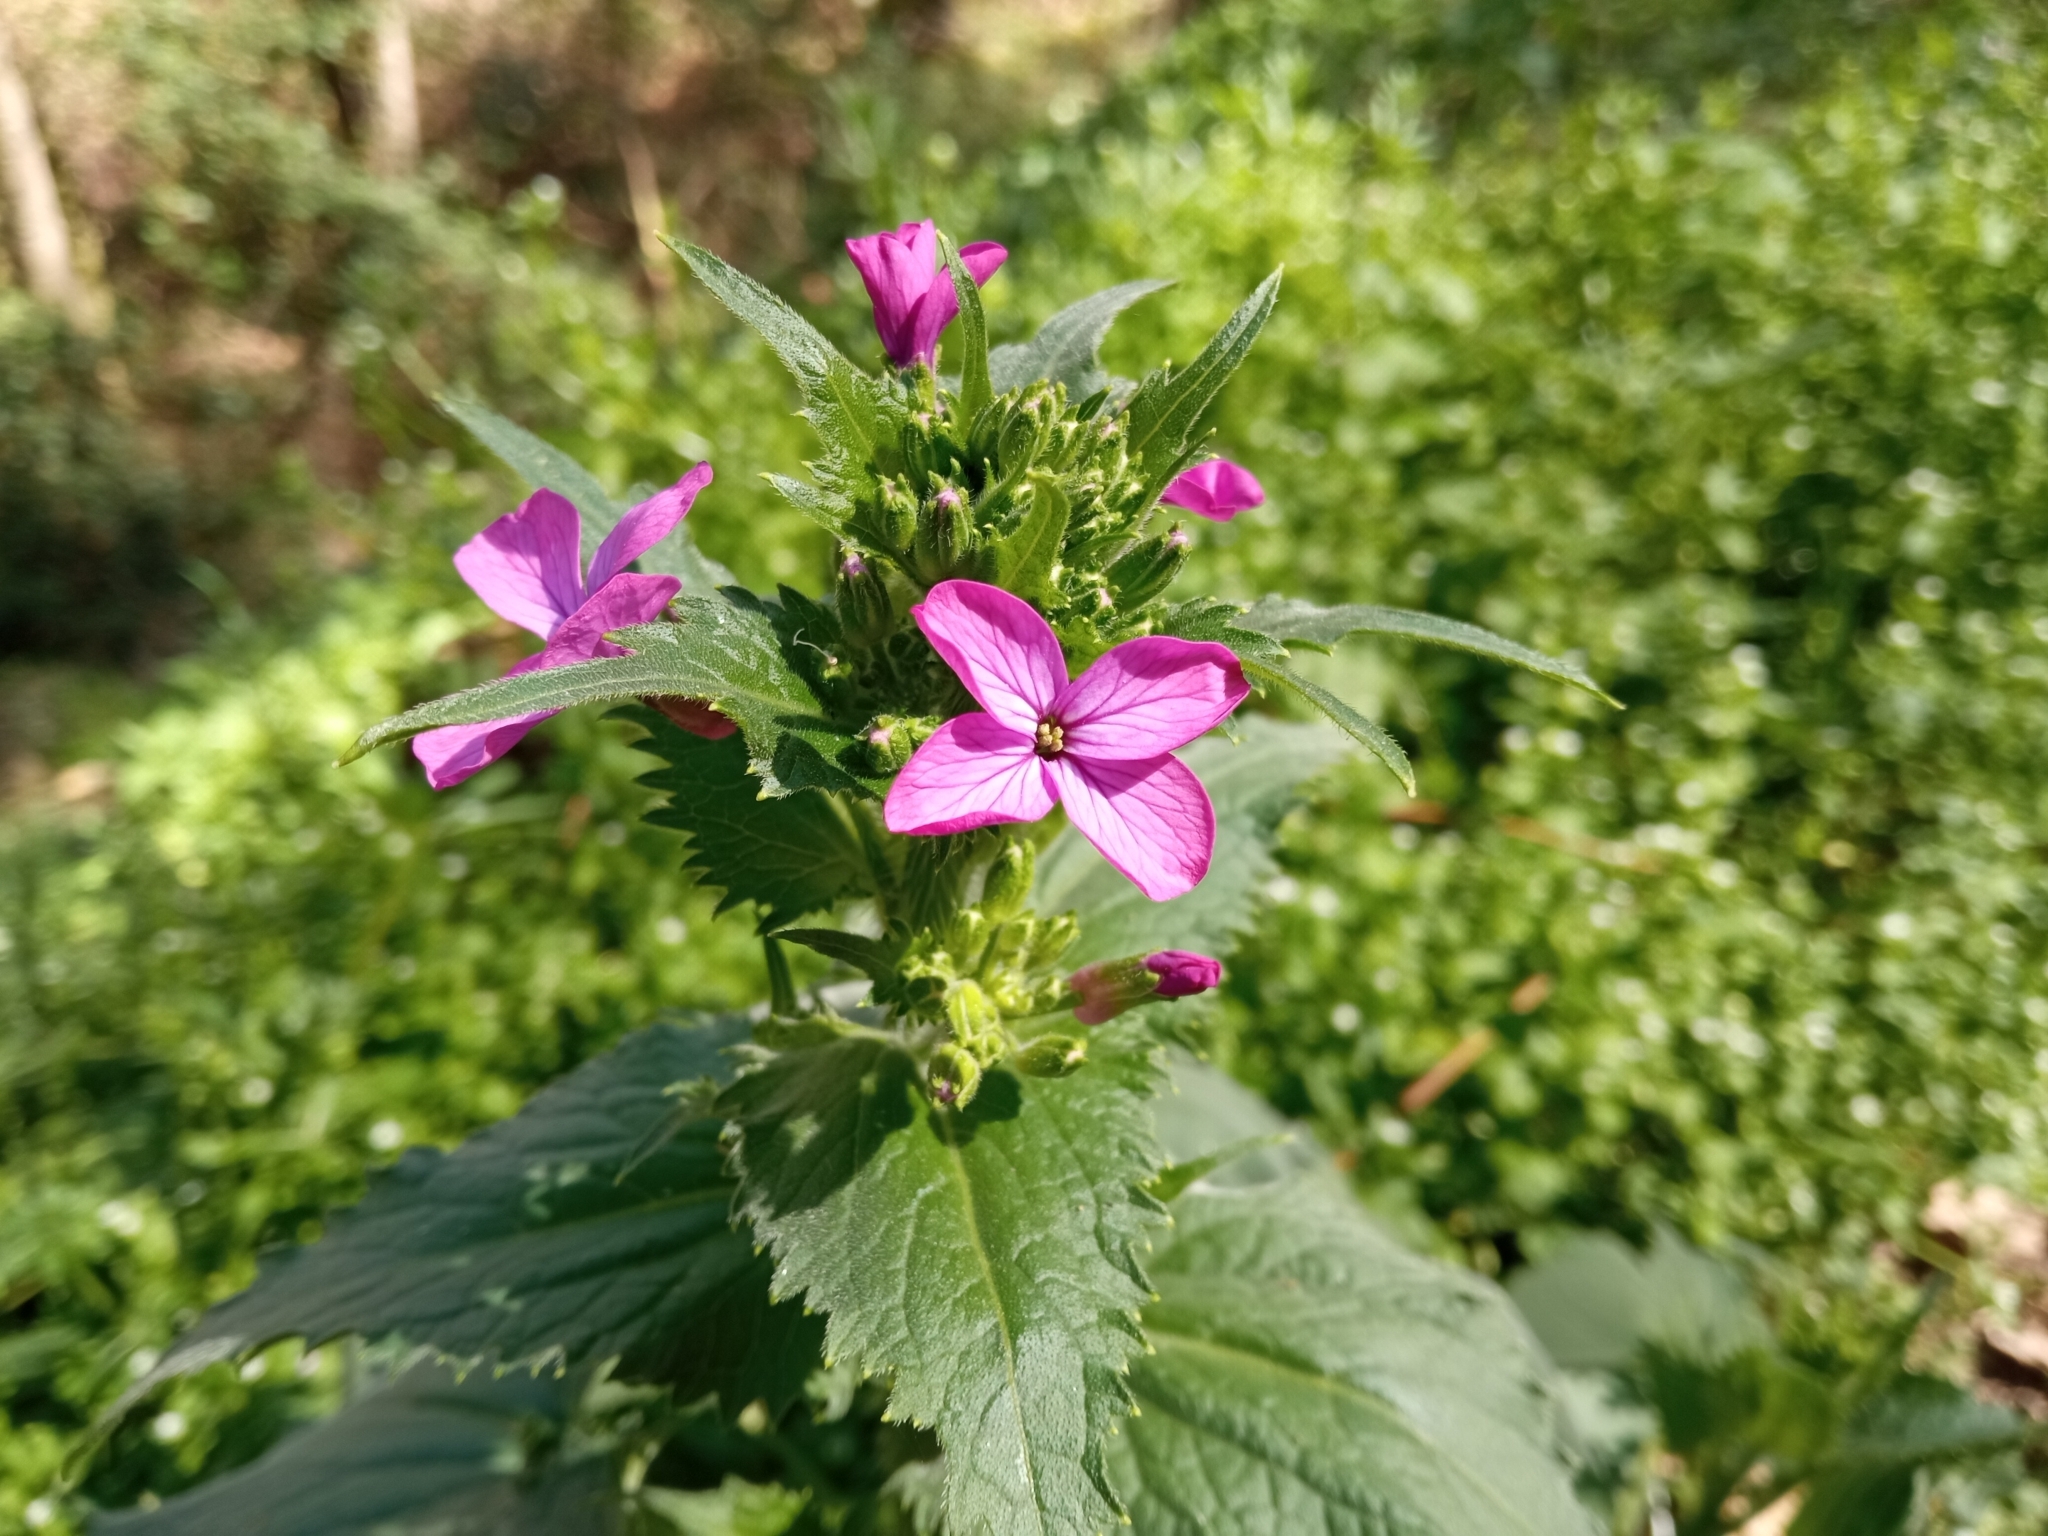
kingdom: Plantae
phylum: Tracheophyta
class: Magnoliopsida
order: Brassicales
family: Brassicaceae
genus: Lunaria
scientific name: Lunaria annua
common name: Honesty
